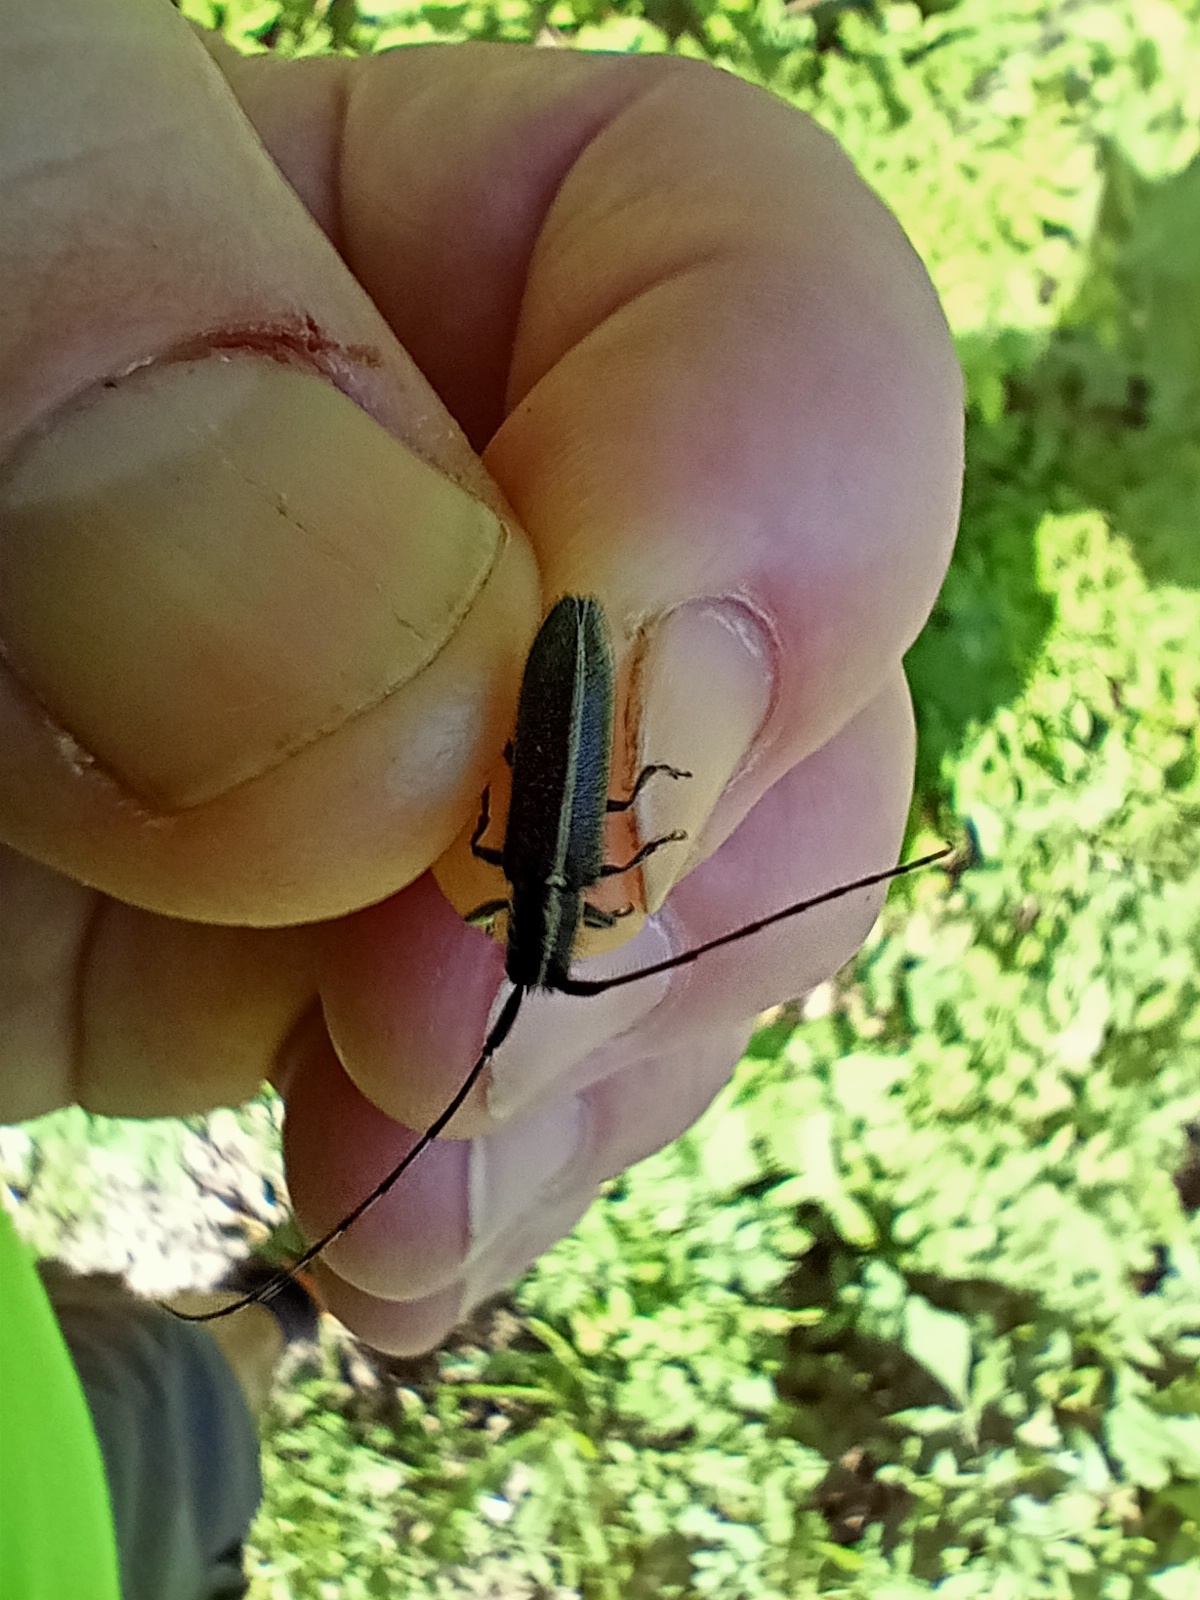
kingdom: Animalia
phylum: Arthropoda
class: Insecta
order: Coleoptera
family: Cerambycidae
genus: Agapanthia
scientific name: Agapanthia cardui
